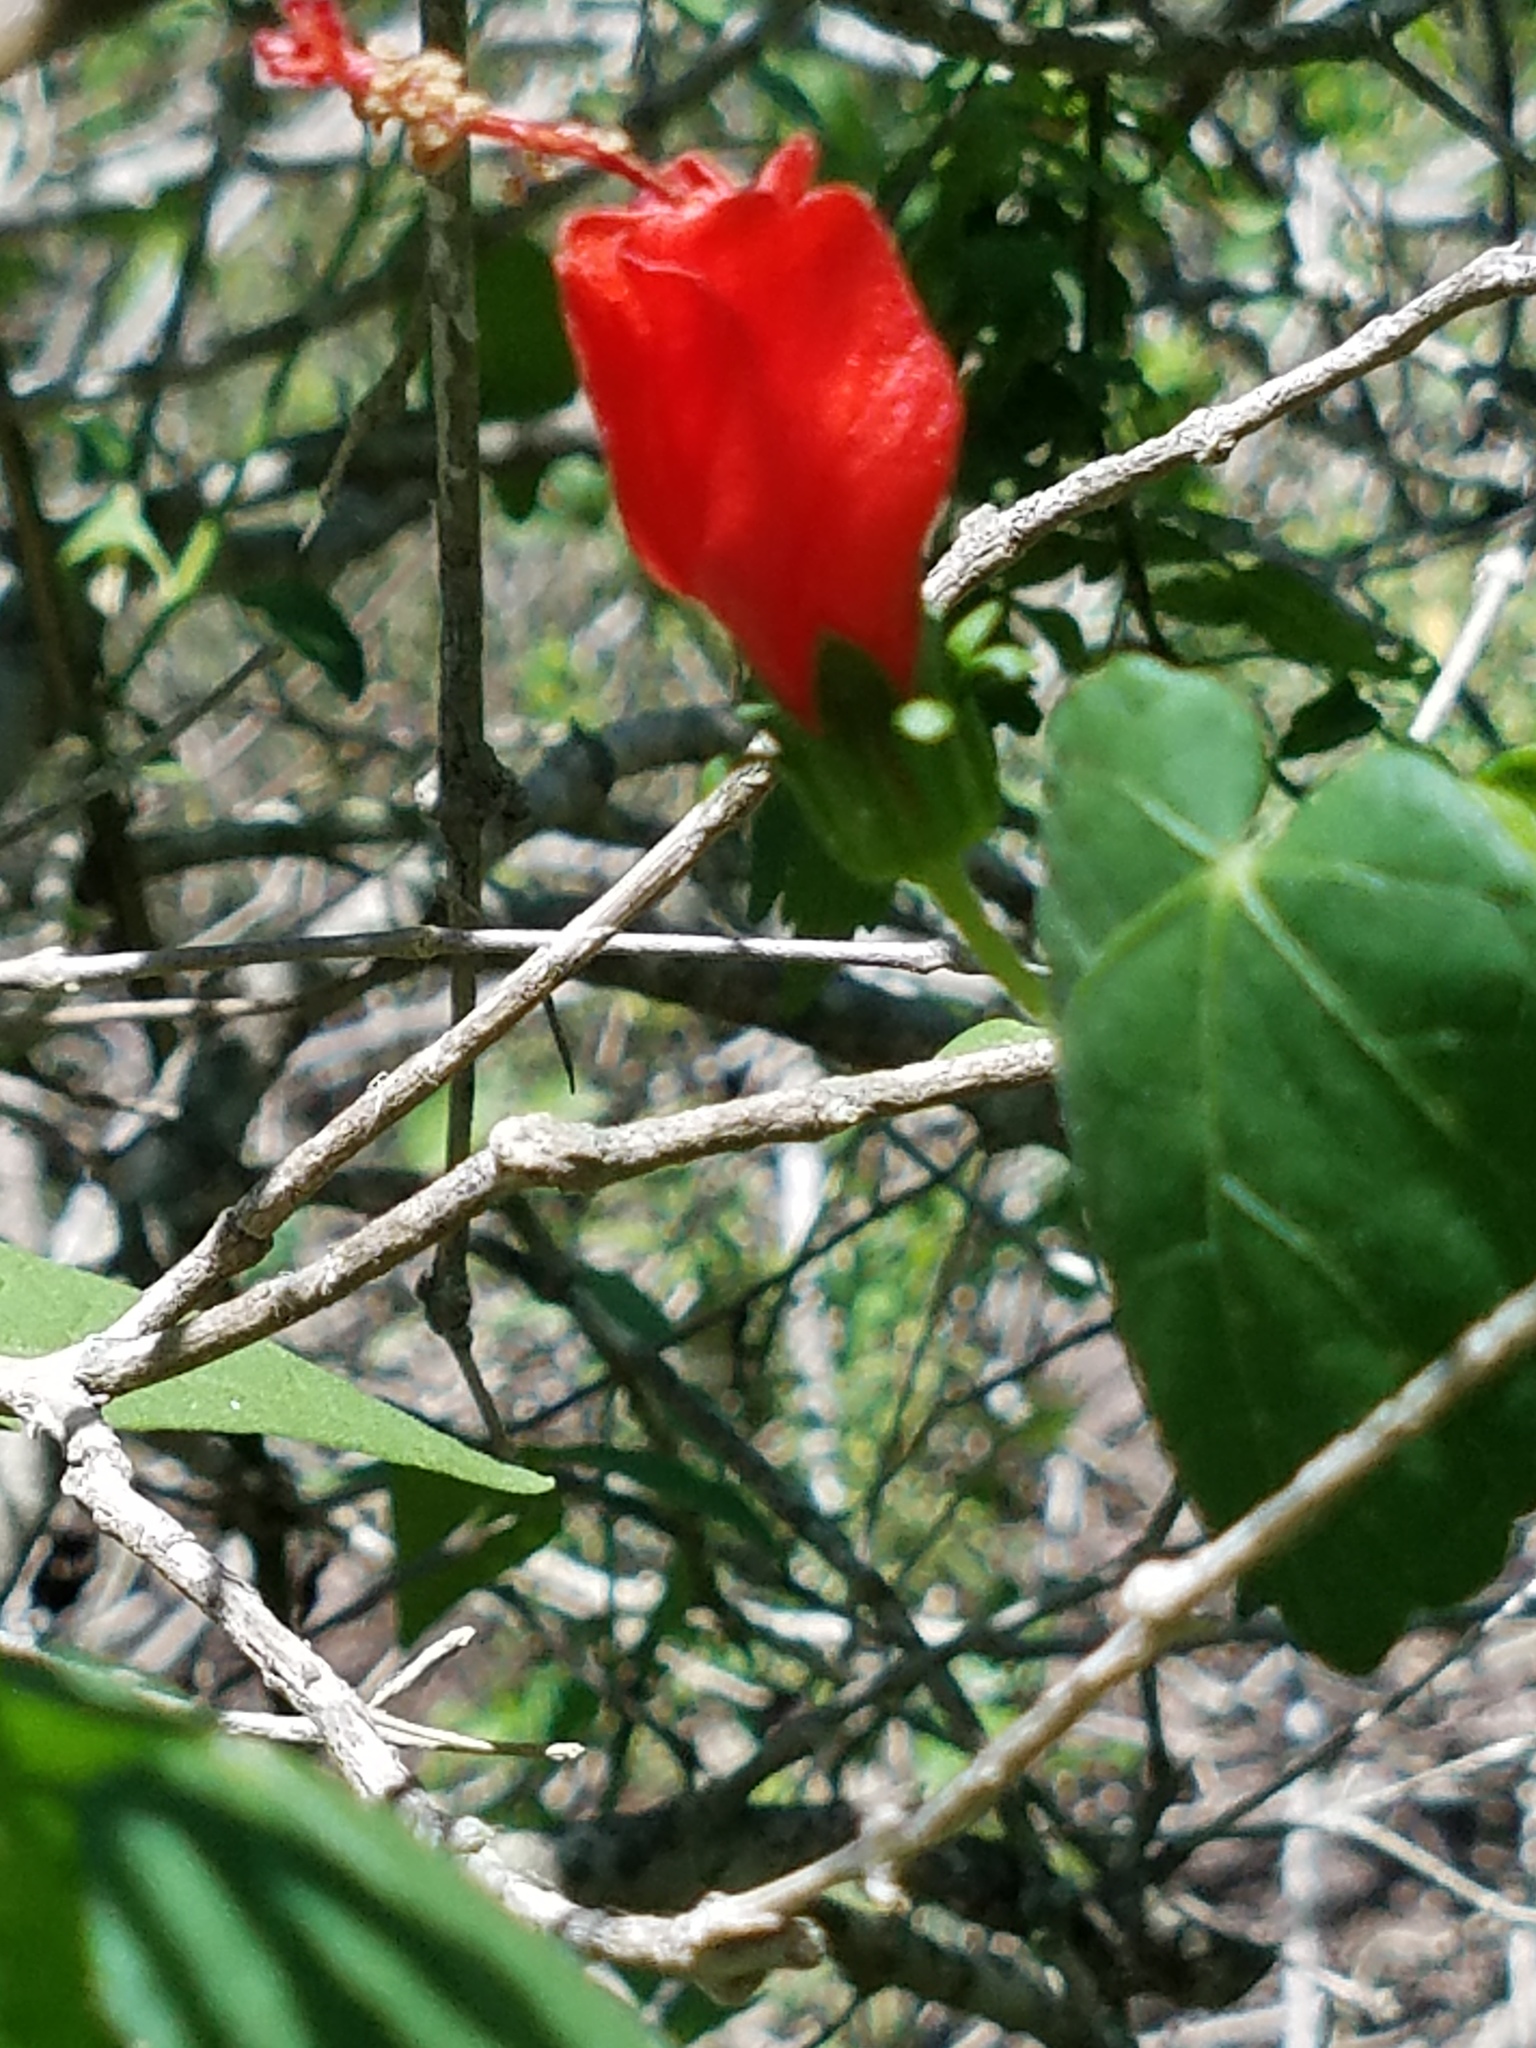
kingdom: Plantae
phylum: Tracheophyta
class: Magnoliopsida
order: Malvales
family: Malvaceae
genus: Malvaviscus
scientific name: Malvaviscus arboreus
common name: Wax mallow
